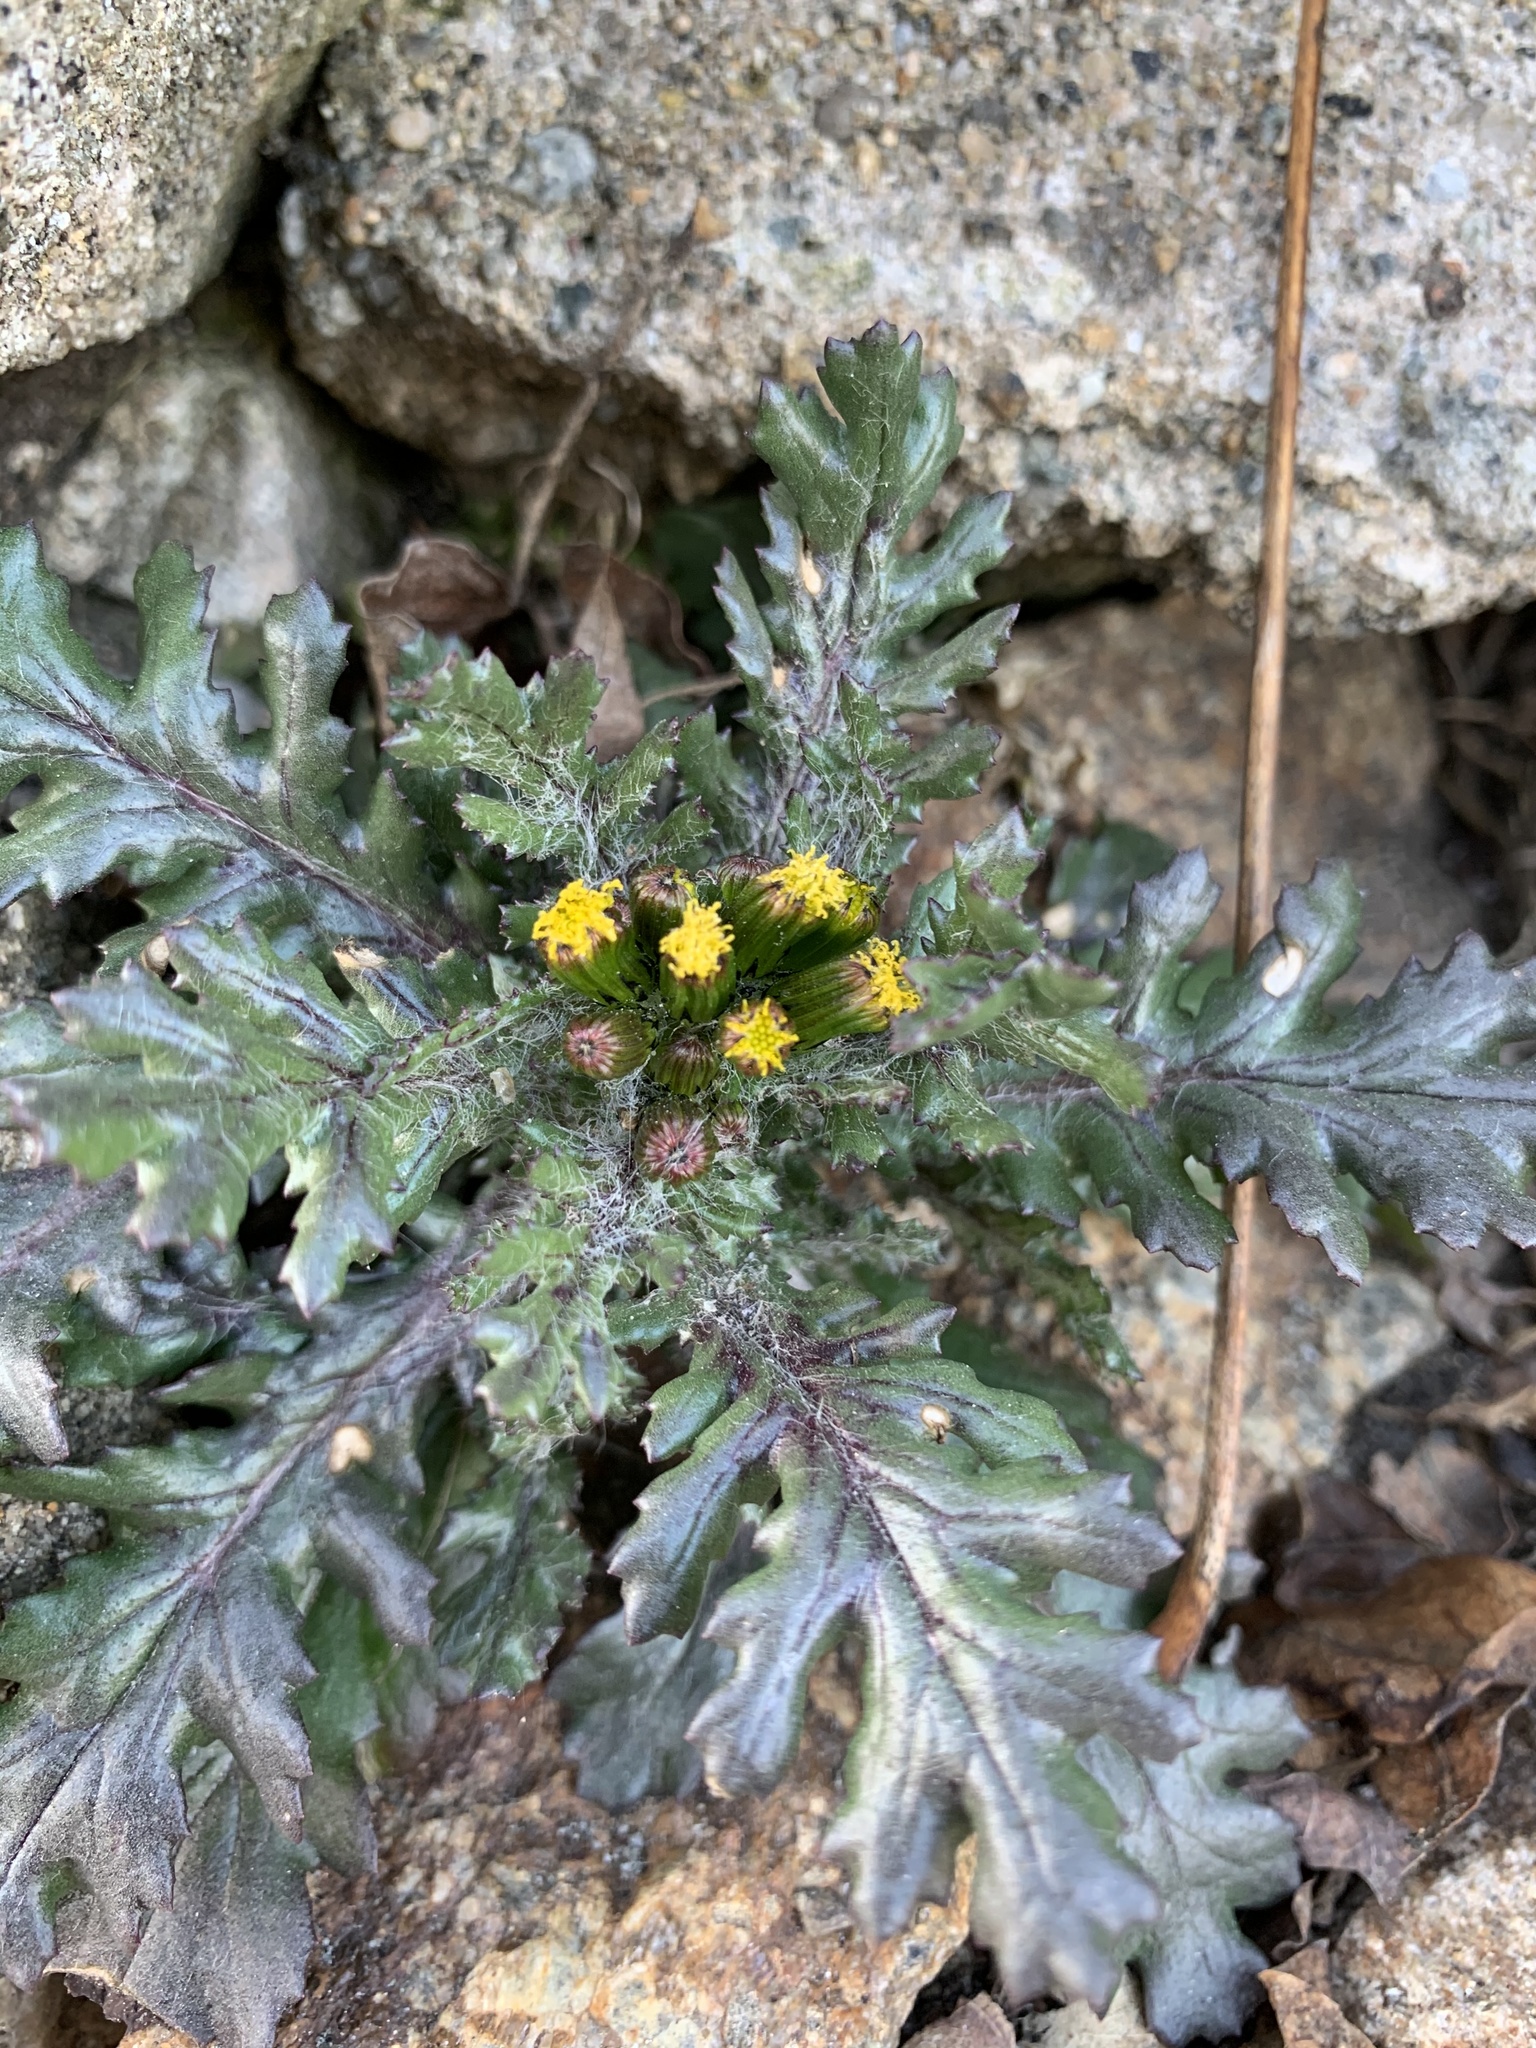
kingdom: Plantae
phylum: Tracheophyta
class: Magnoliopsida
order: Asterales
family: Asteraceae
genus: Senecio
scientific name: Senecio vulgaris
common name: Old-man-in-the-spring
